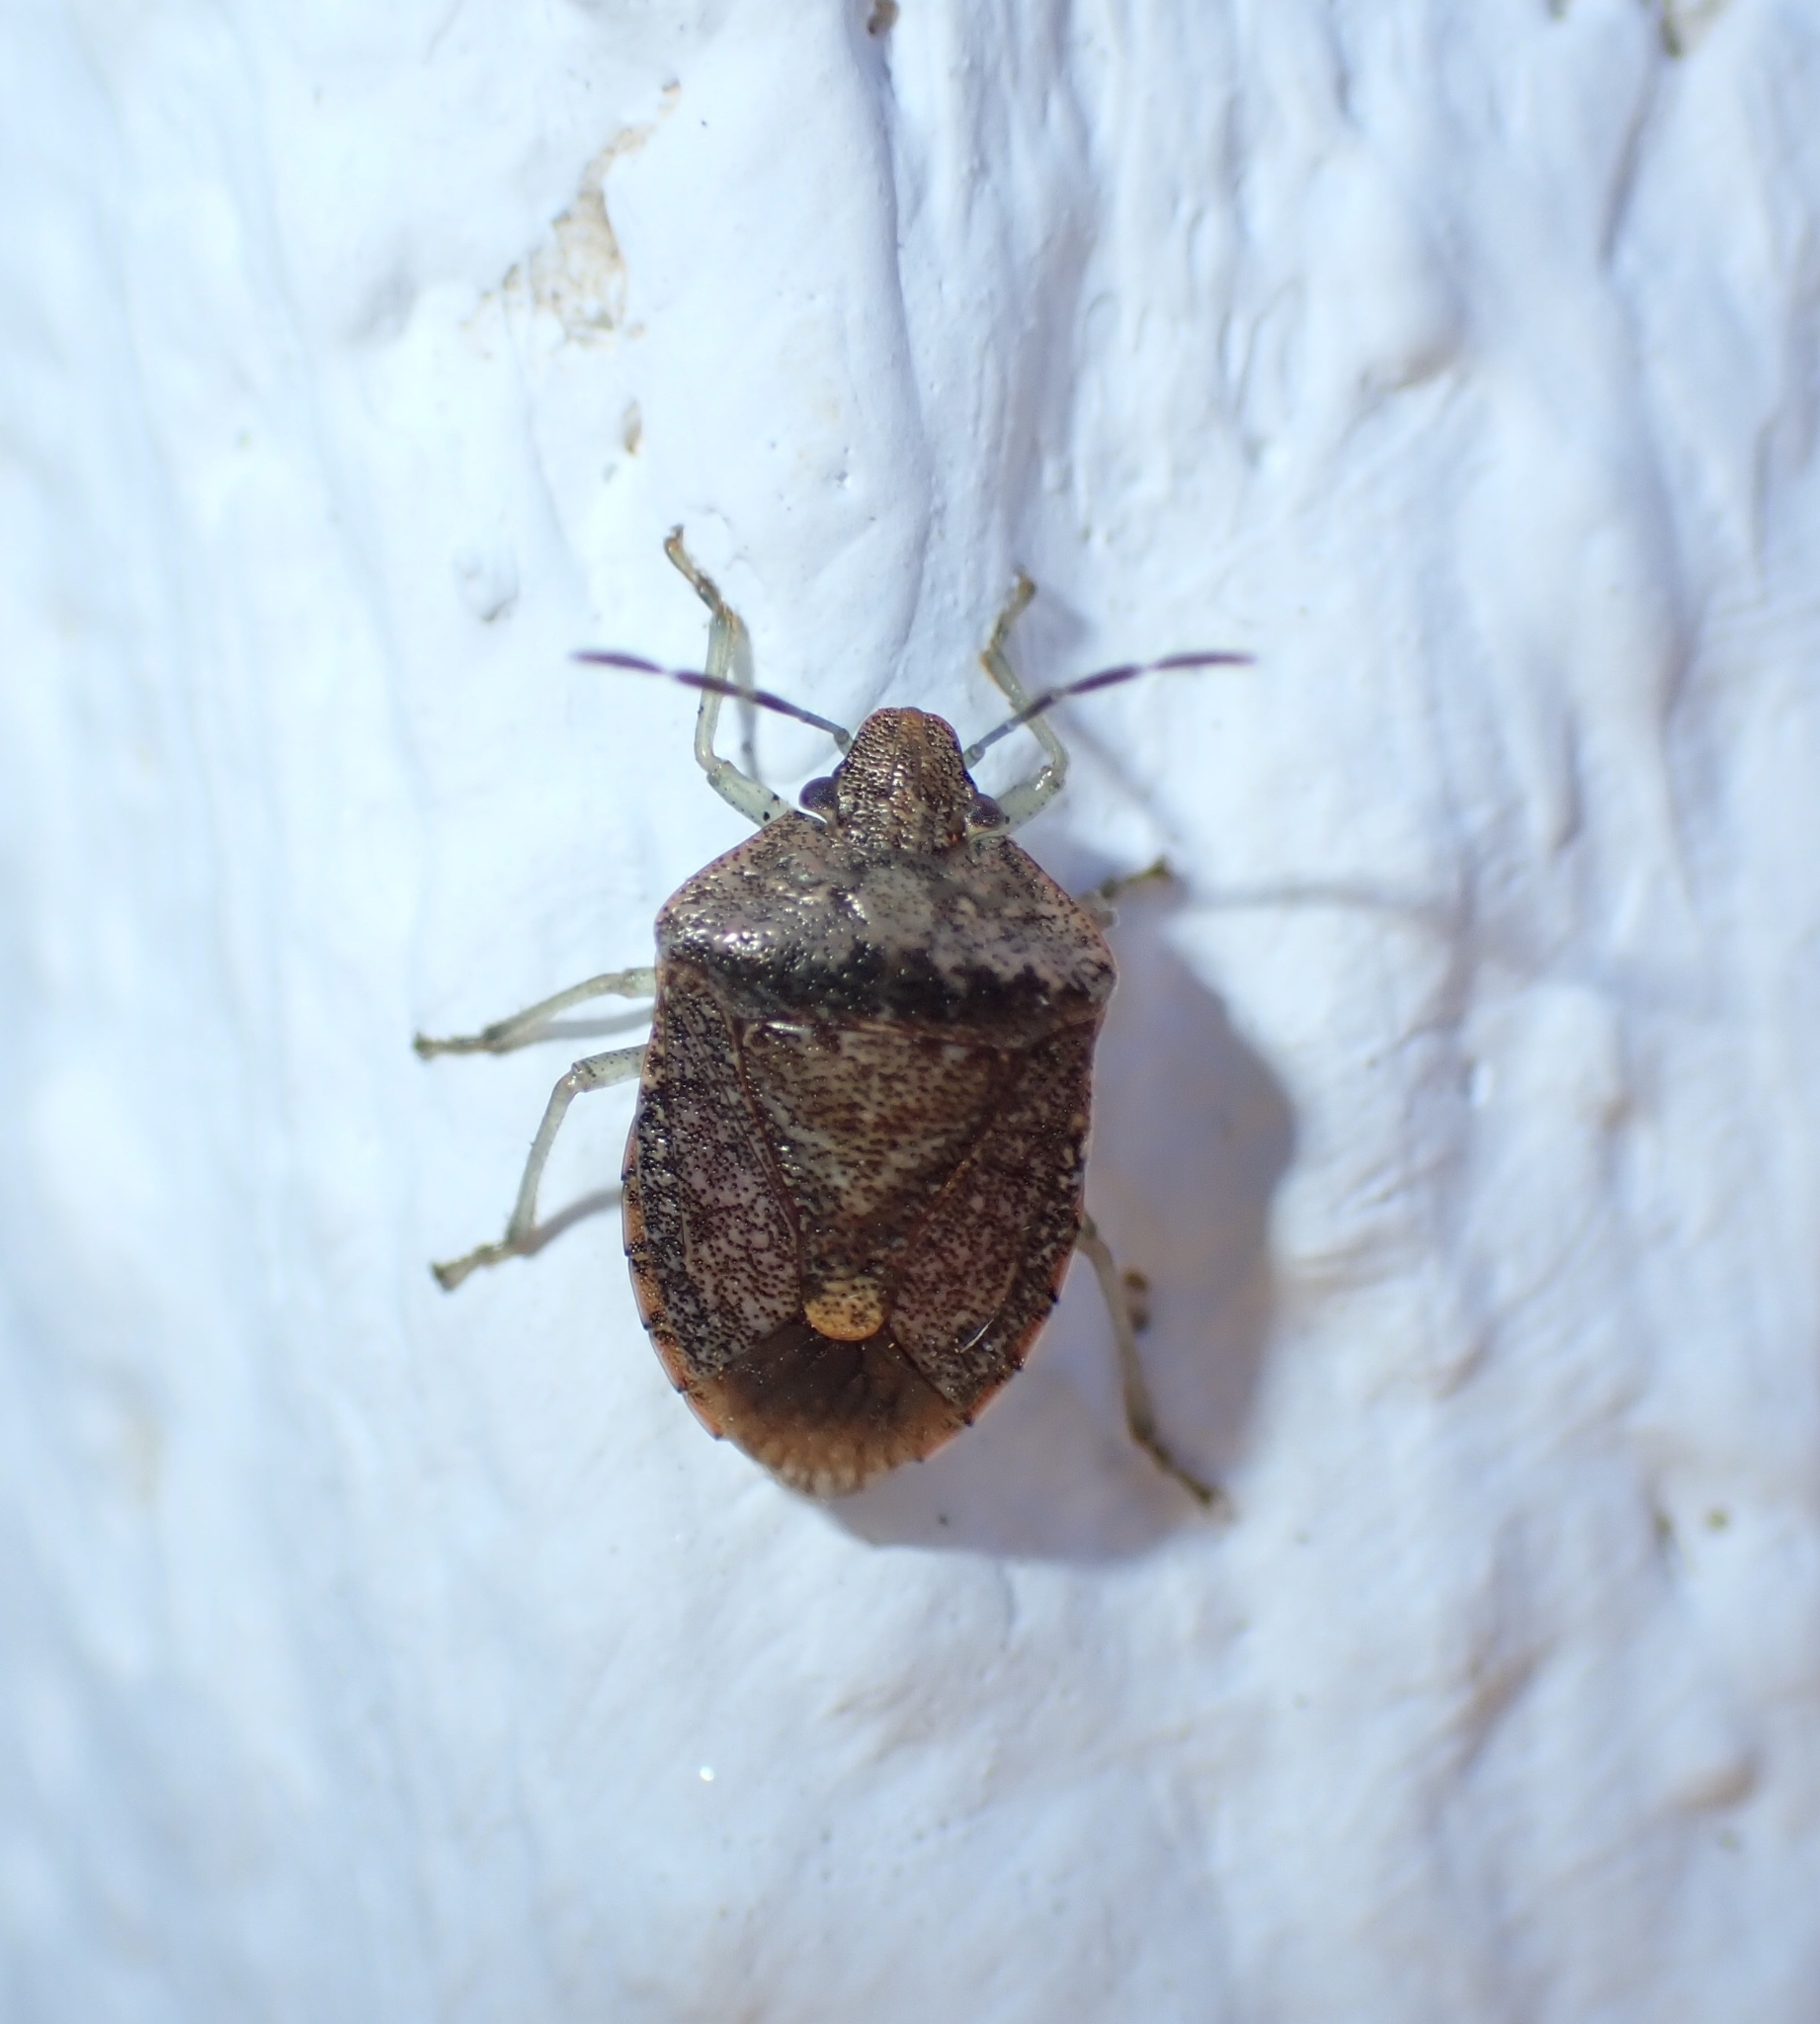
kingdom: Animalia
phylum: Arthropoda
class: Insecta
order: Hemiptera
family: Pentatomidae
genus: Dryadocoris
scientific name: Dryadocoris apicalis
